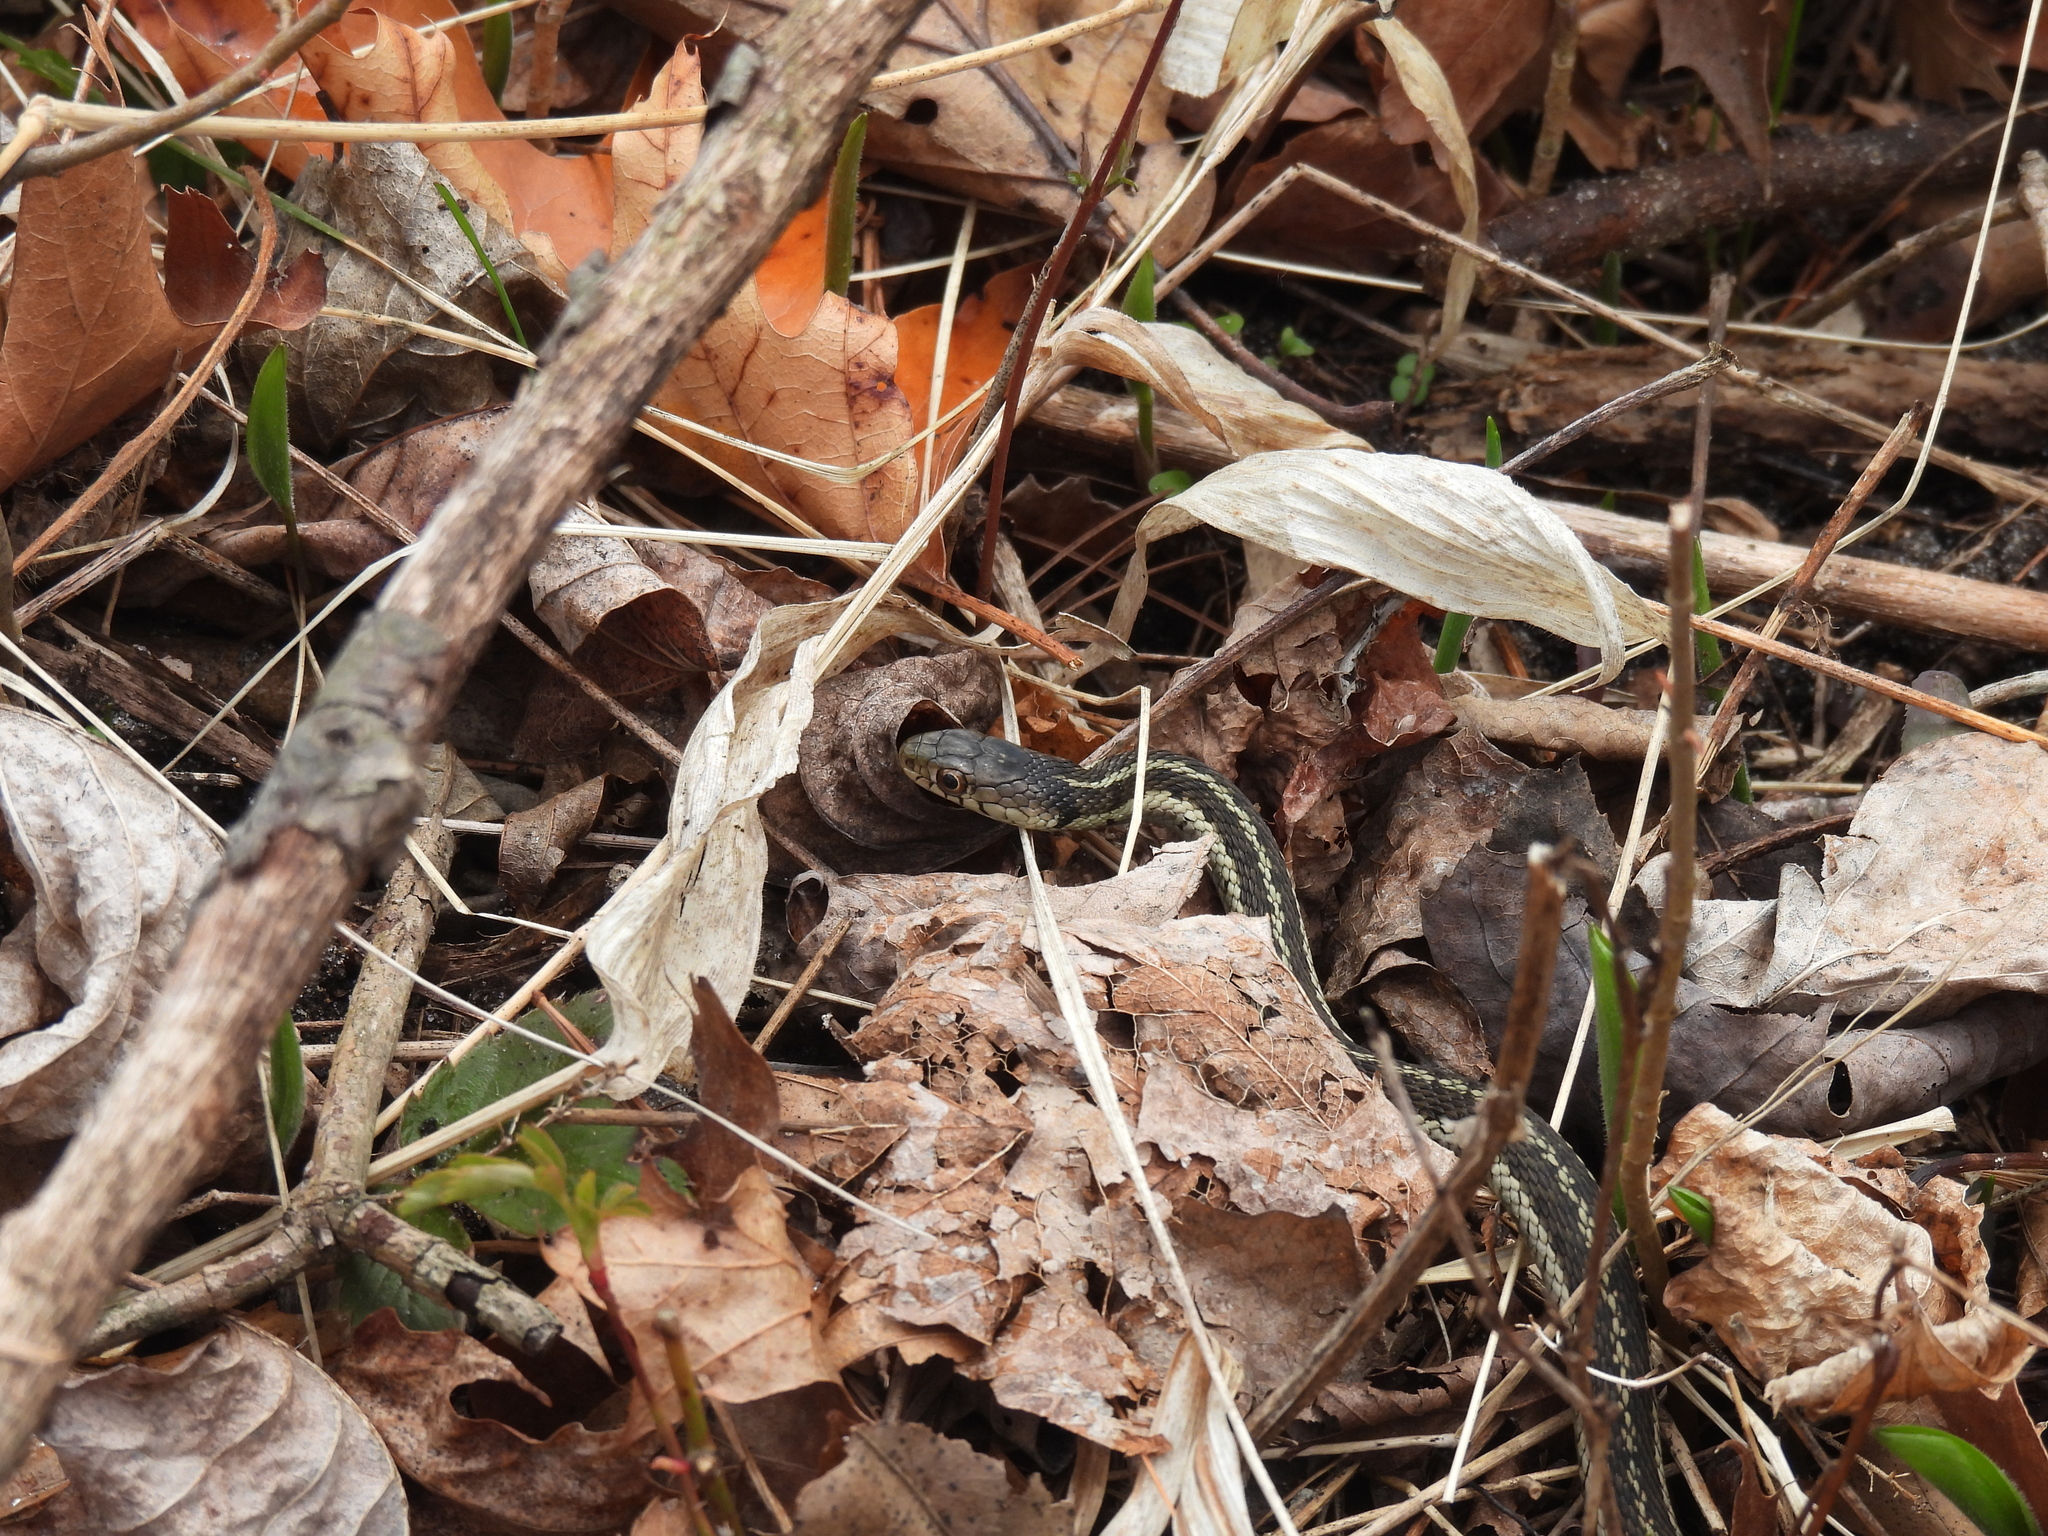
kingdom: Animalia
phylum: Chordata
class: Squamata
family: Colubridae
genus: Thamnophis
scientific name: Thamnophis sirtalis
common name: Common garter snake
